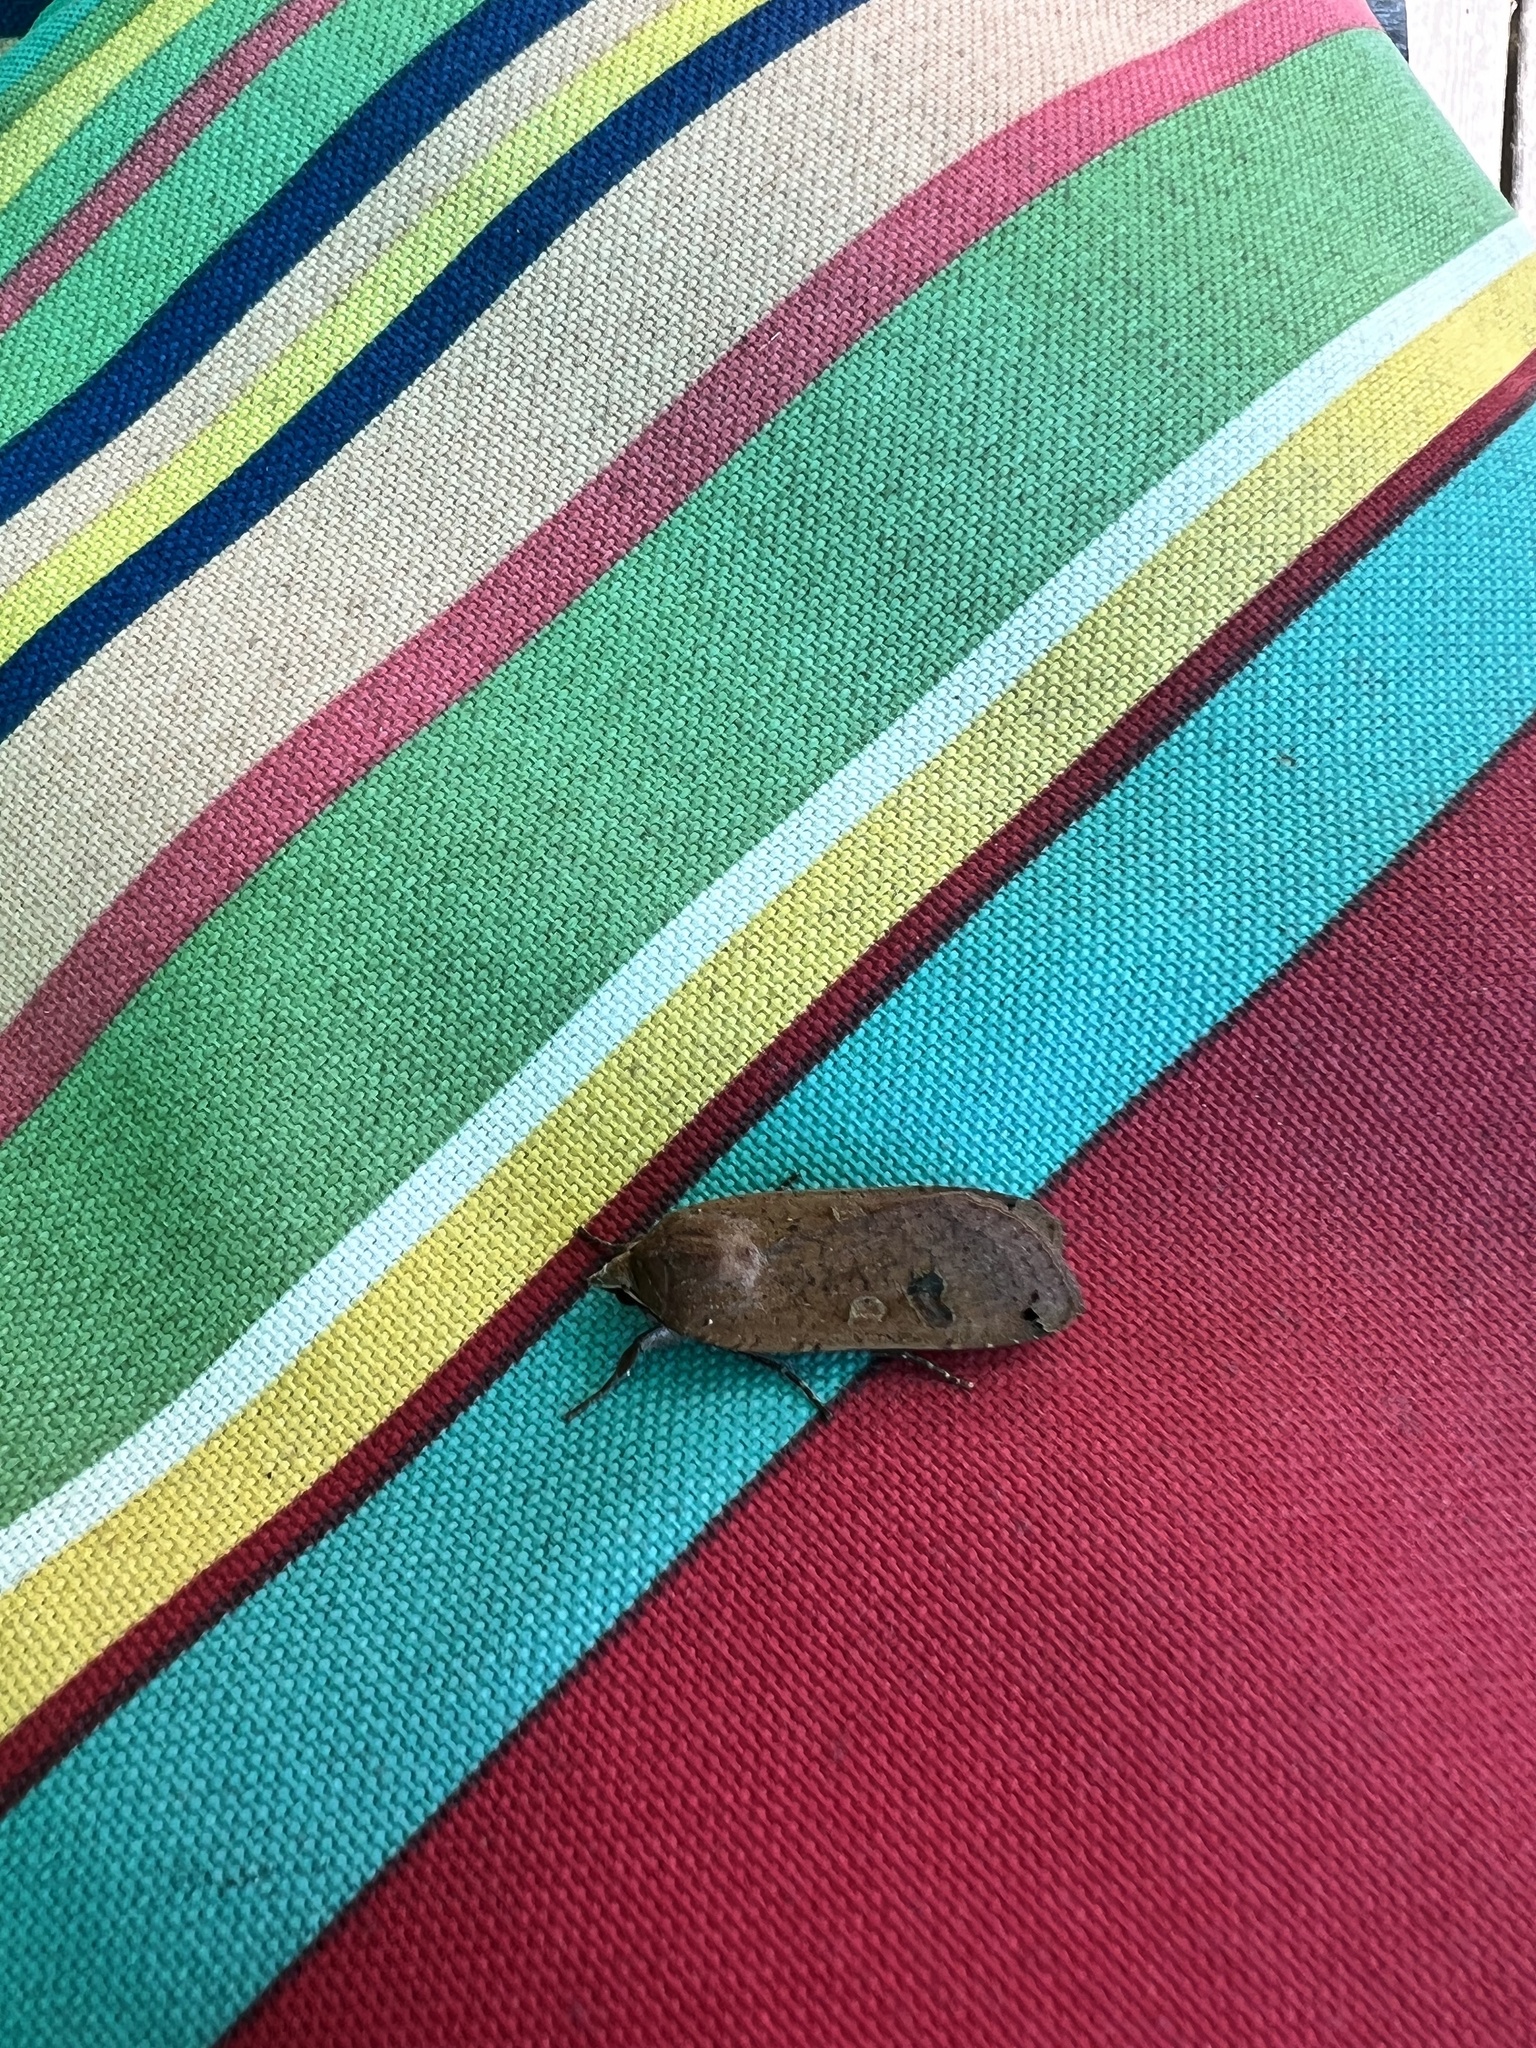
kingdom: Animalia
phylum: Arthropoda
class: Insecta
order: Lepidoptera
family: Noctuidae
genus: Noctua
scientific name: Noctua pronuba
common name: Large yellow underwing
